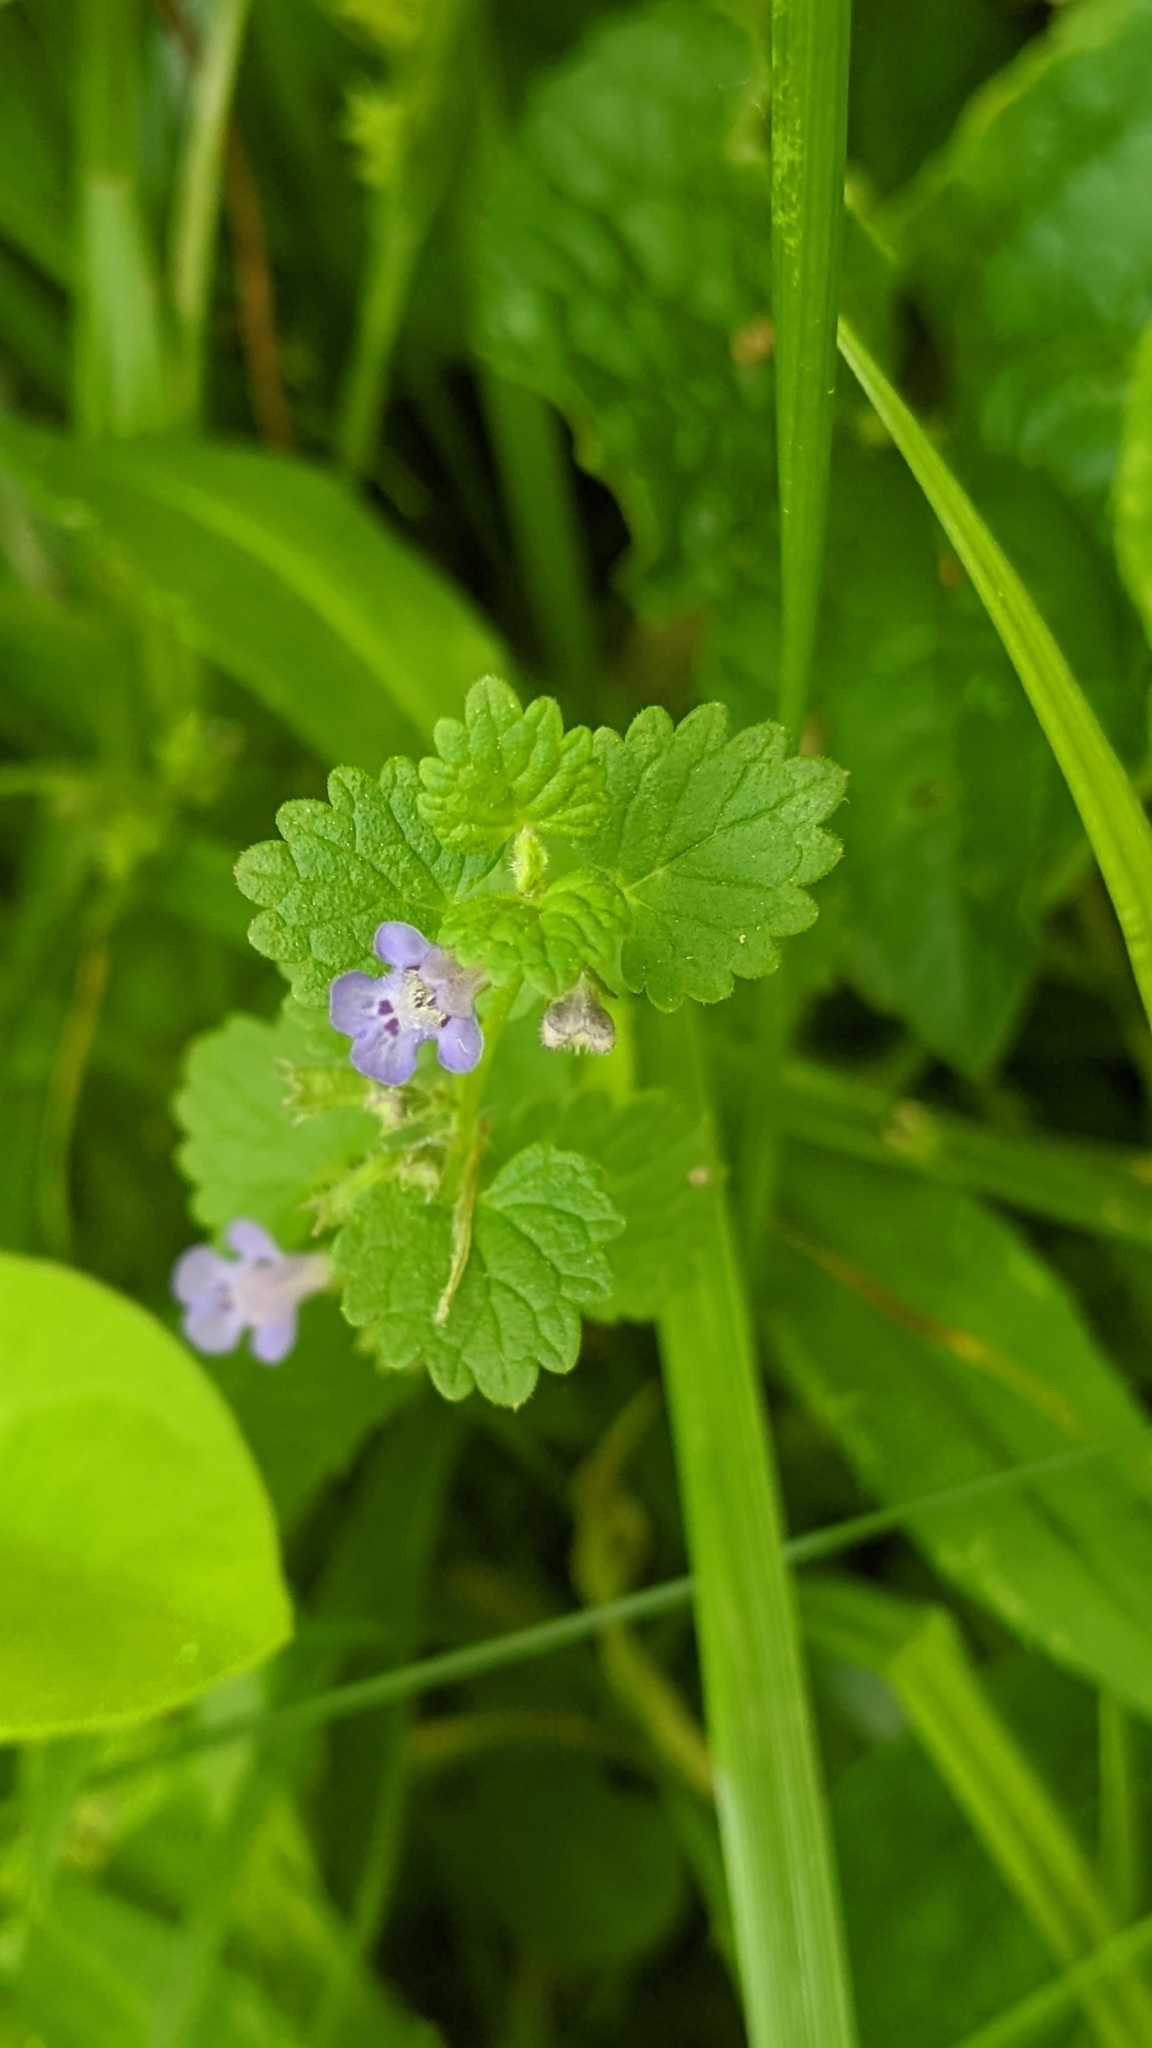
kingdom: Plantae
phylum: Tracheophyta
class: Magnoliopsida
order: Lamiales
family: Lamiaceae
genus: Glechoma
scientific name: Glechoma hederacea
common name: Ground ivy
